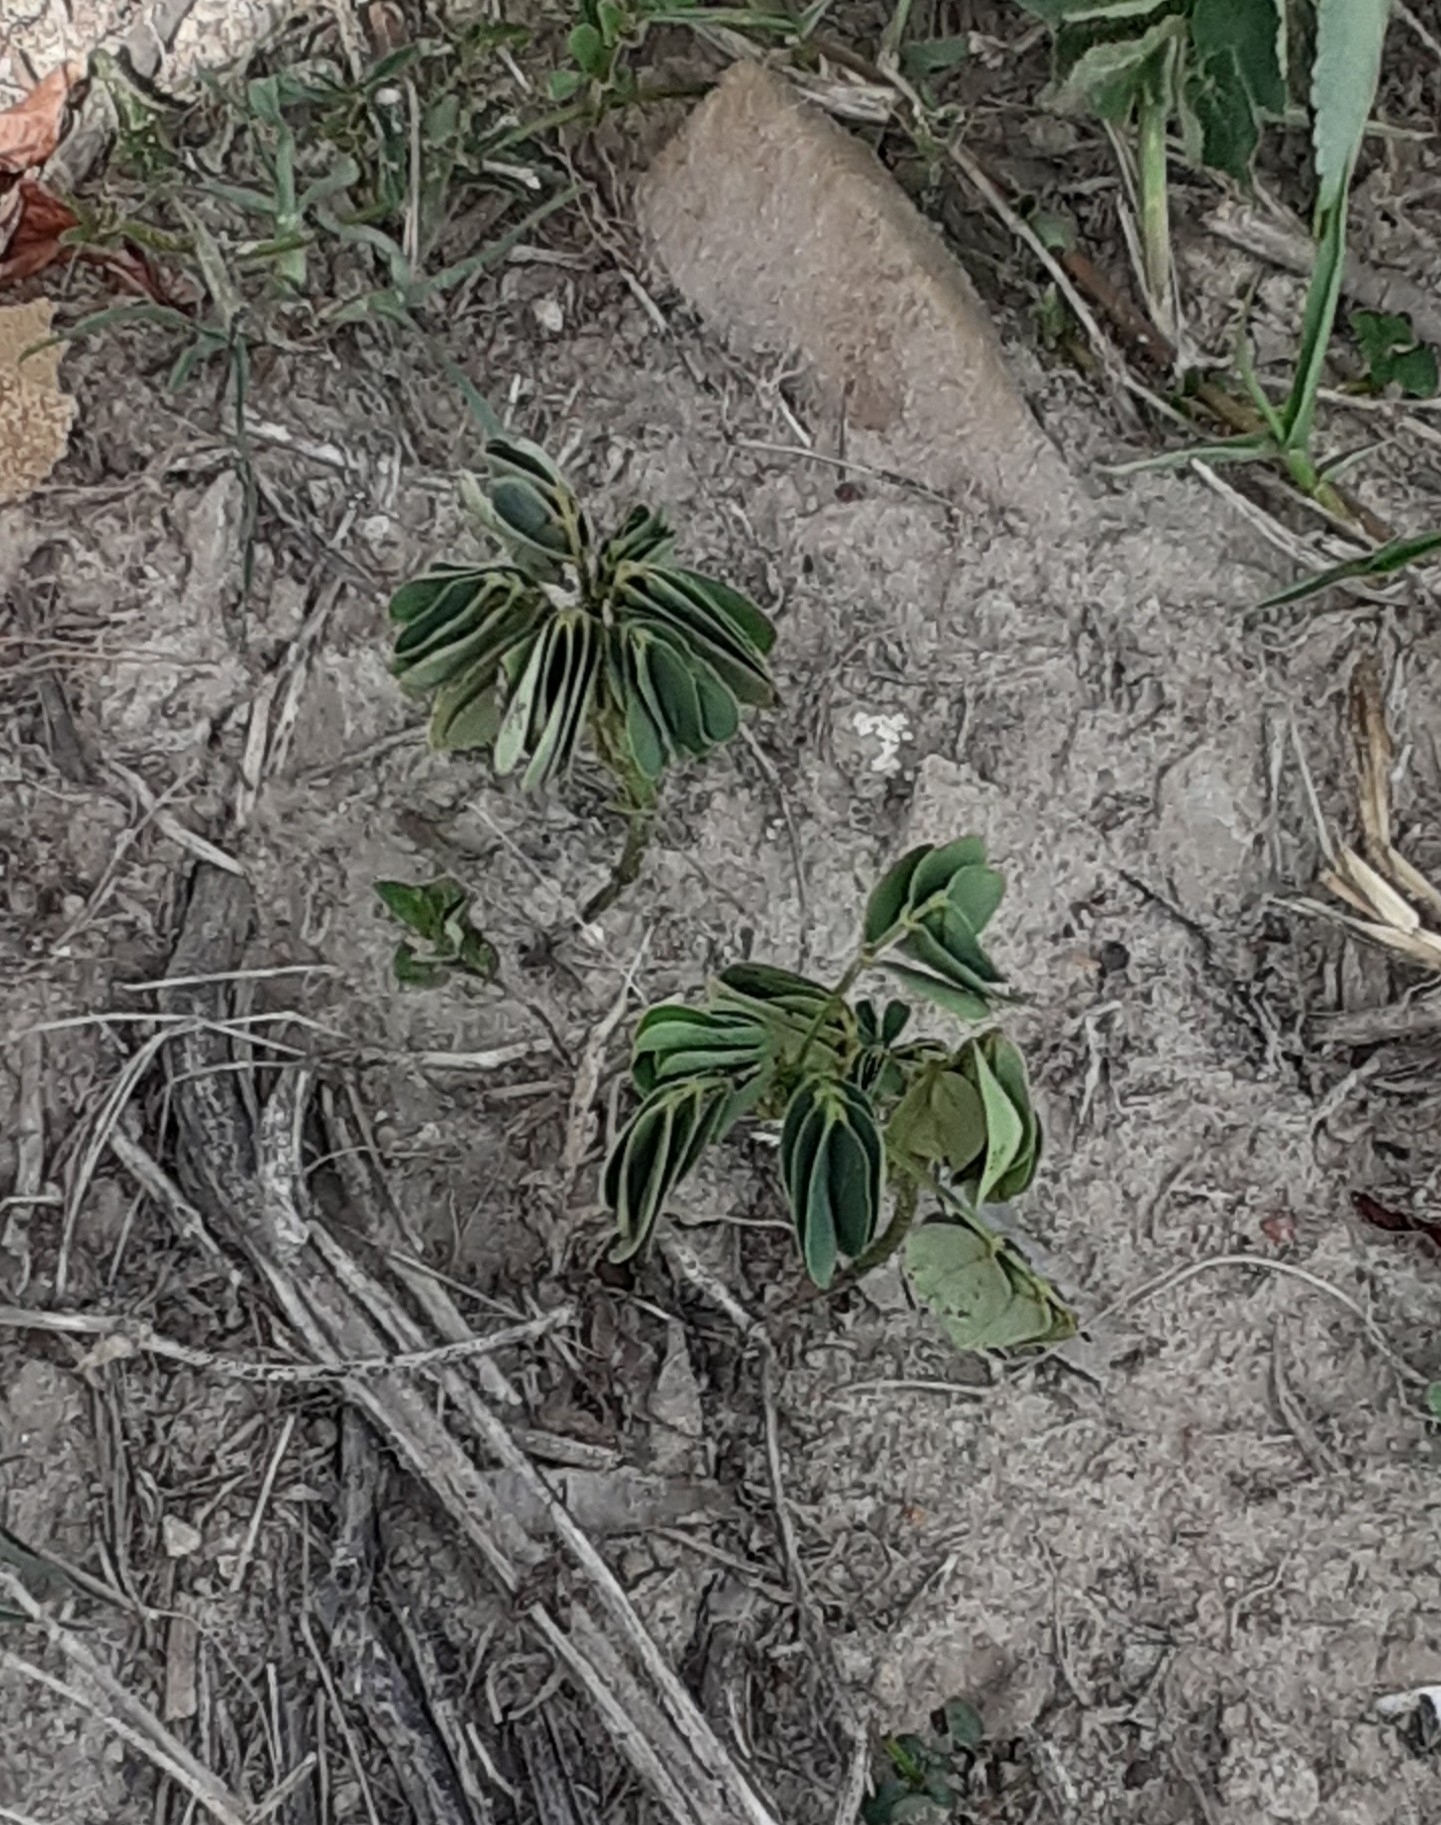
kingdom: Plantae
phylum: Tracheophyta
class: Magnoliopsida
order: Fabales
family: Fabaceae
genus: Senna
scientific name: Senna obtusifolia
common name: Java-bean
